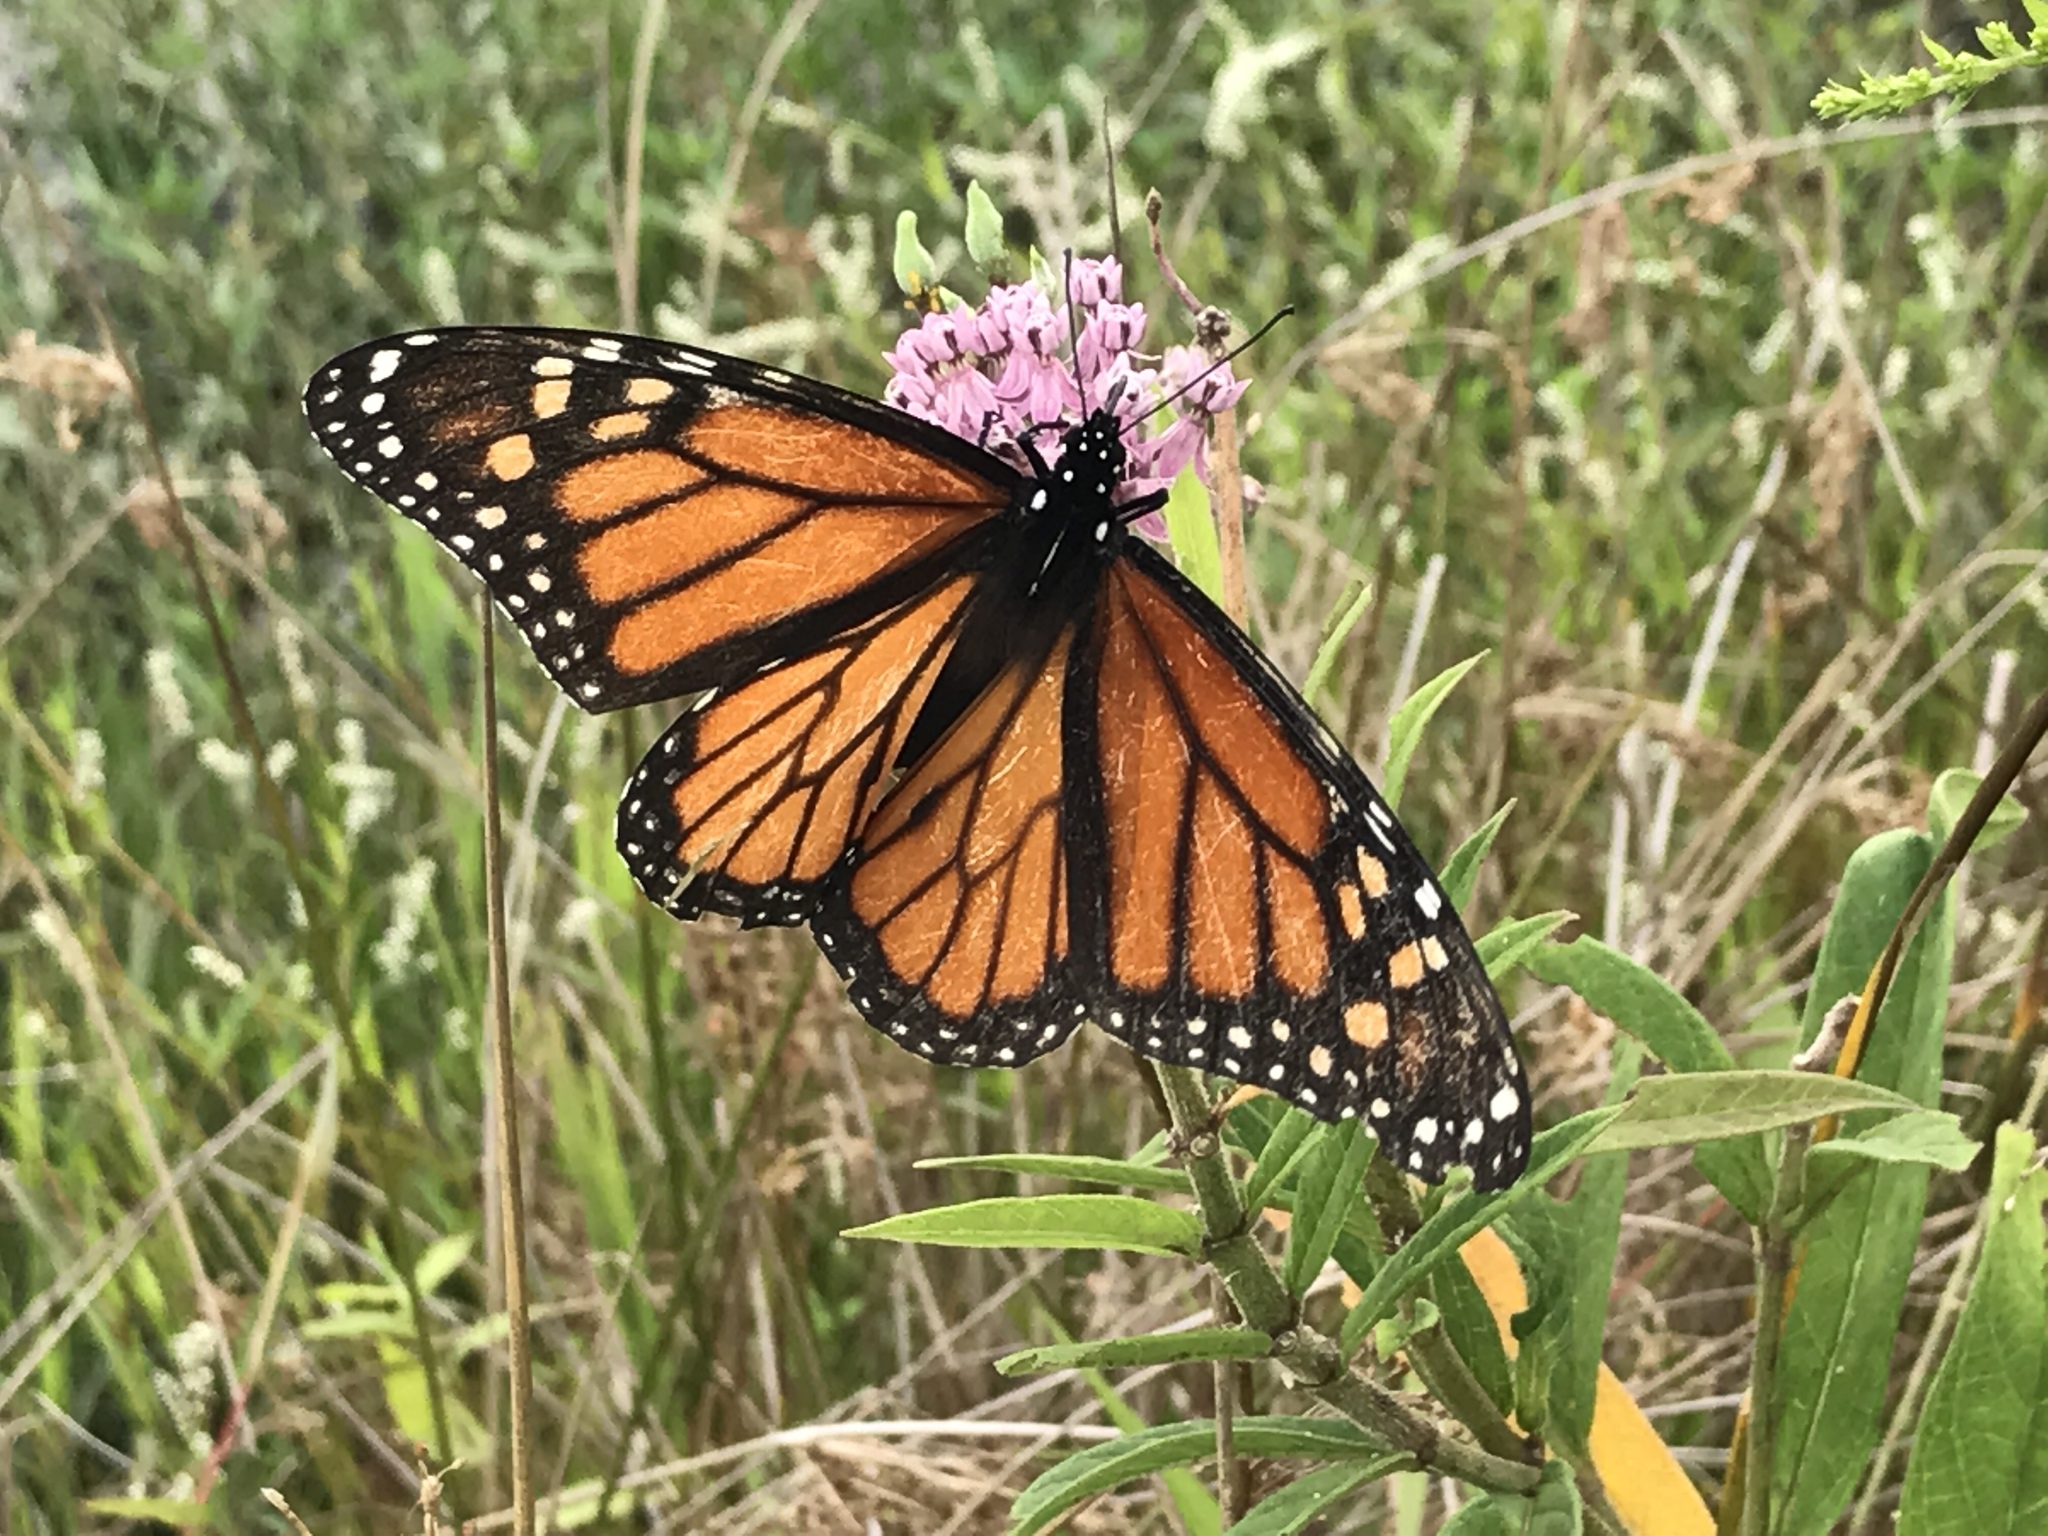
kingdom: Animalia
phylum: Arthropoda
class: Insecta
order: Lepidoptera
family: Nymphalidae
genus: Danaus
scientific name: Danaus plexippus
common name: Monarch
